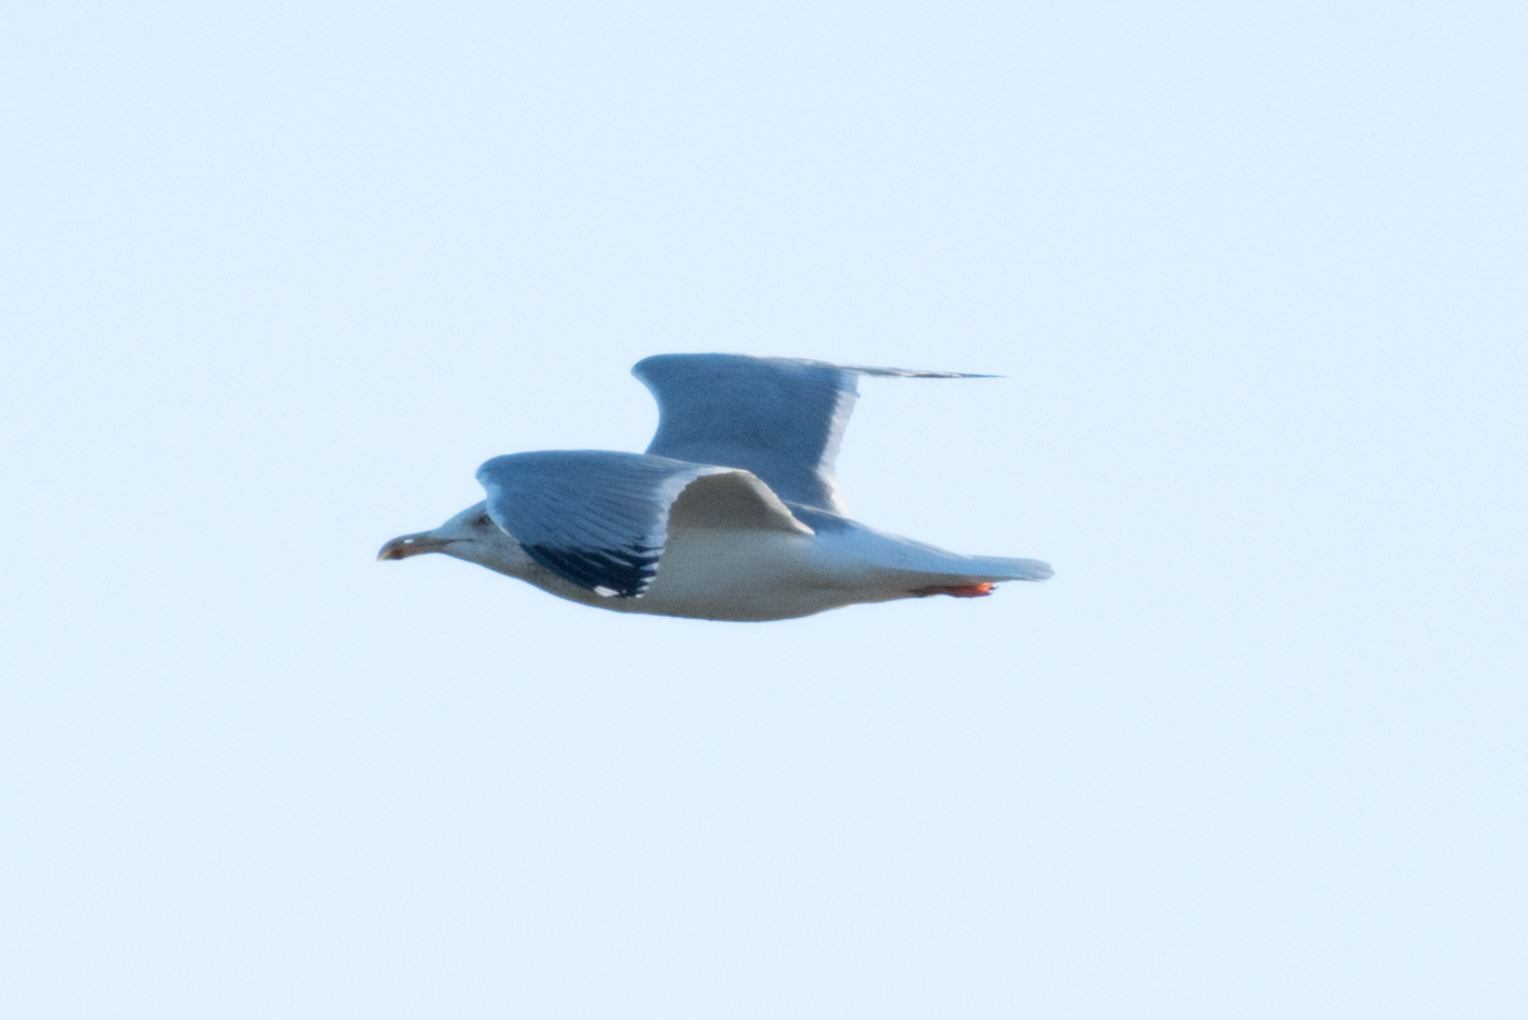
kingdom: Animalia
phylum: Chordata
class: Aves
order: Charadriiformes
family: Laridae
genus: Larus
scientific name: Larus argentatus
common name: Herring gull
